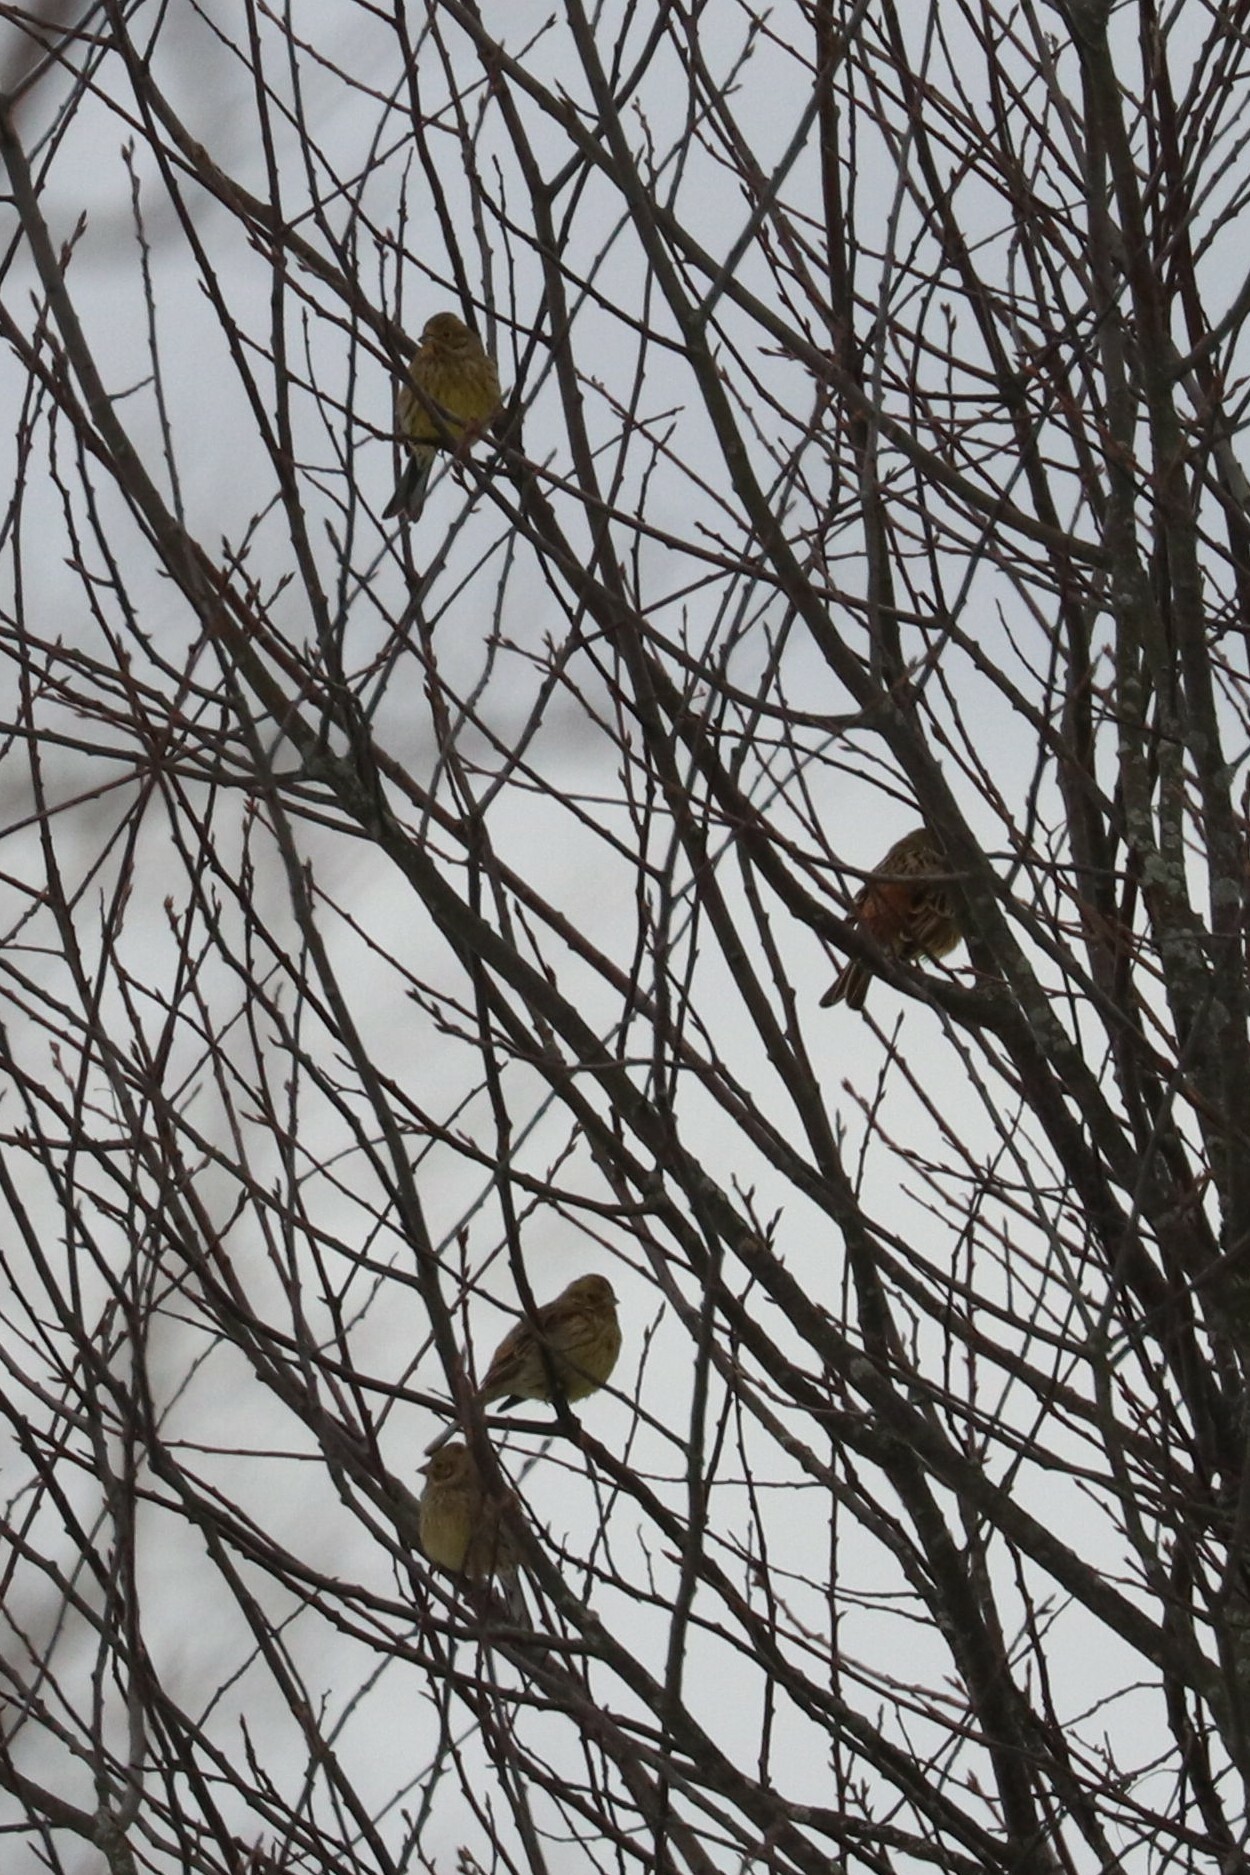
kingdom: Animalia
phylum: Chordata
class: Aves
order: Passeriformes
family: Emberizidae
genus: Emberiza
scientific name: Emberiza citrinella
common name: Yellowhammer
